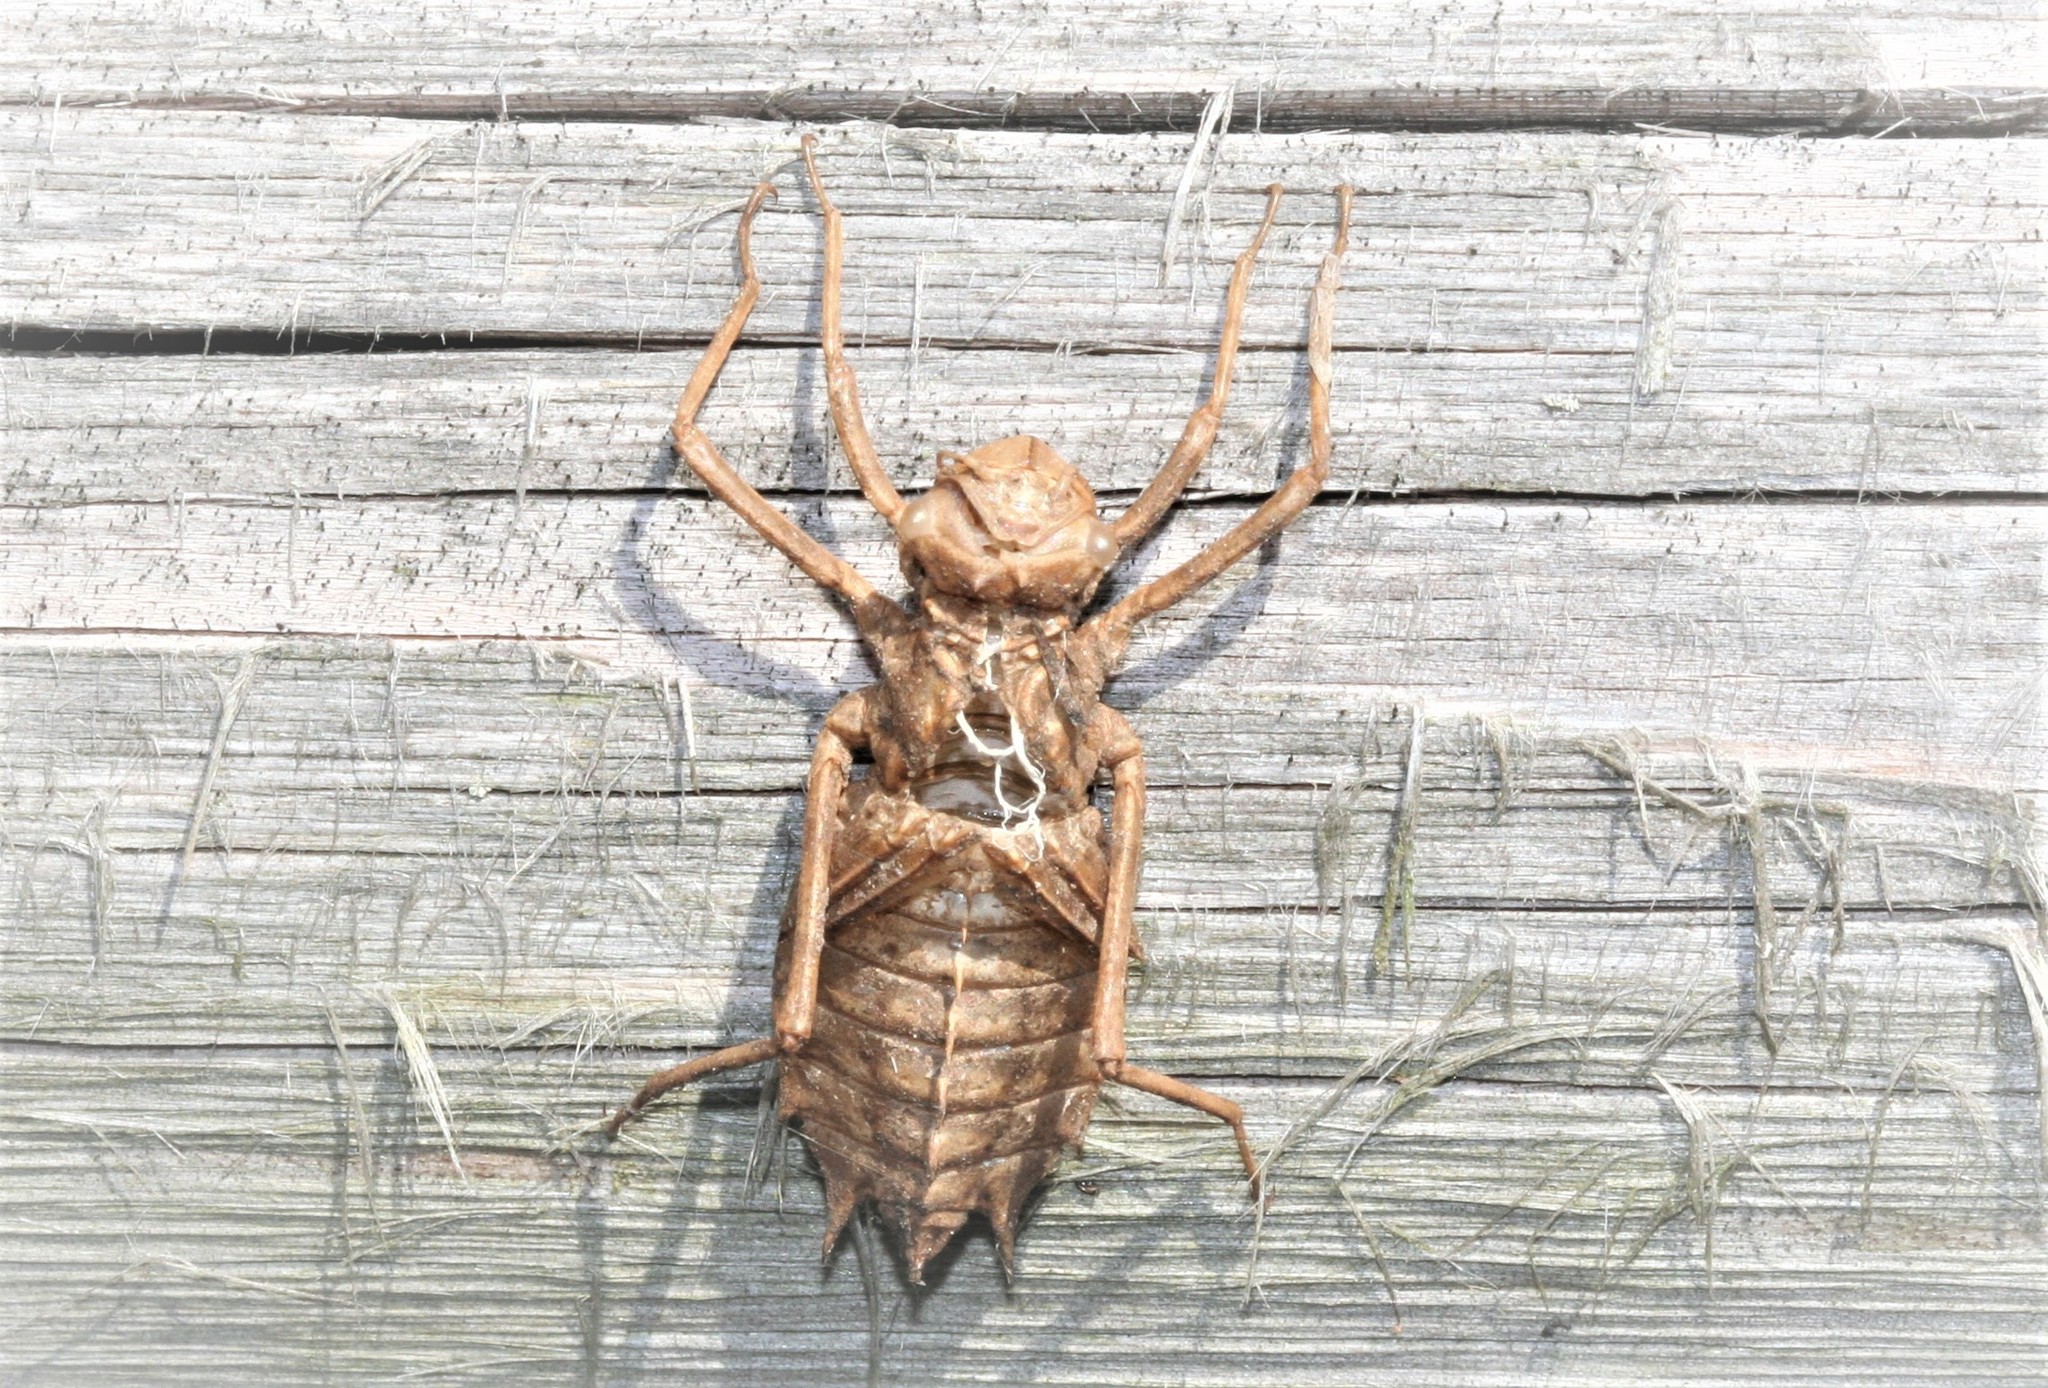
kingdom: Animalia
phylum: Arthropoda
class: Insecta
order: Odonata
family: Corduliidae
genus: Epitheca
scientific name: Epitheca bimaculata
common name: Eurasian baskettail
